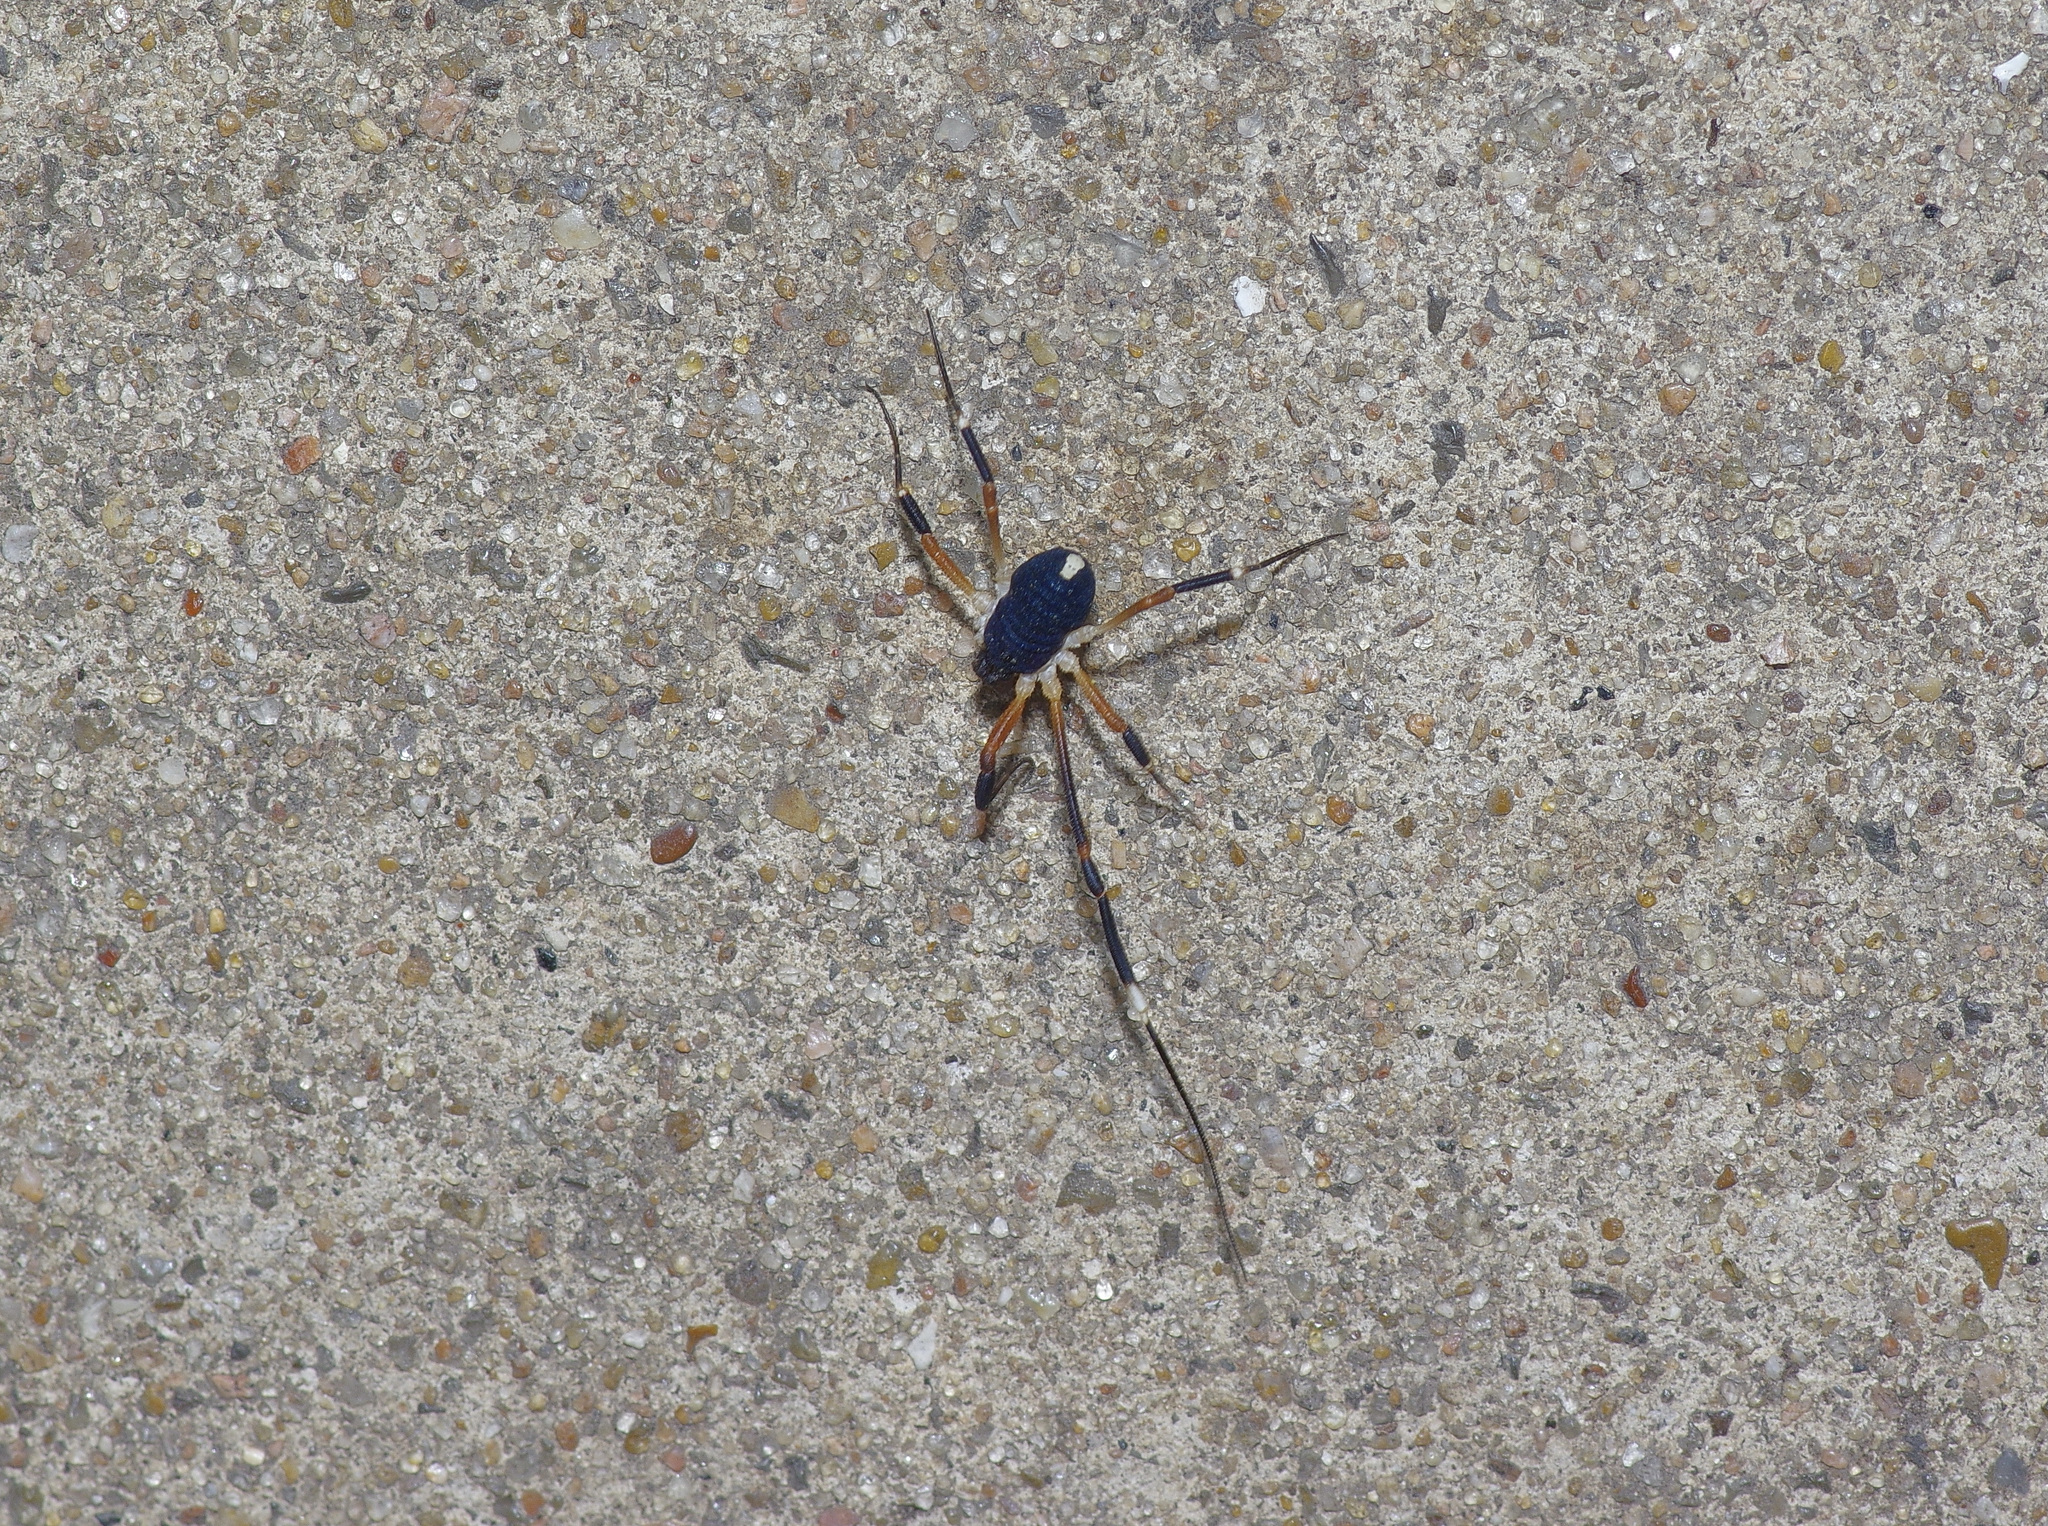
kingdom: Animalia
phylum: Arthropoda
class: Arachnida
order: Opiliones
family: Globipedidae
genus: Dalquestia
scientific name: Dalquestia formosa
